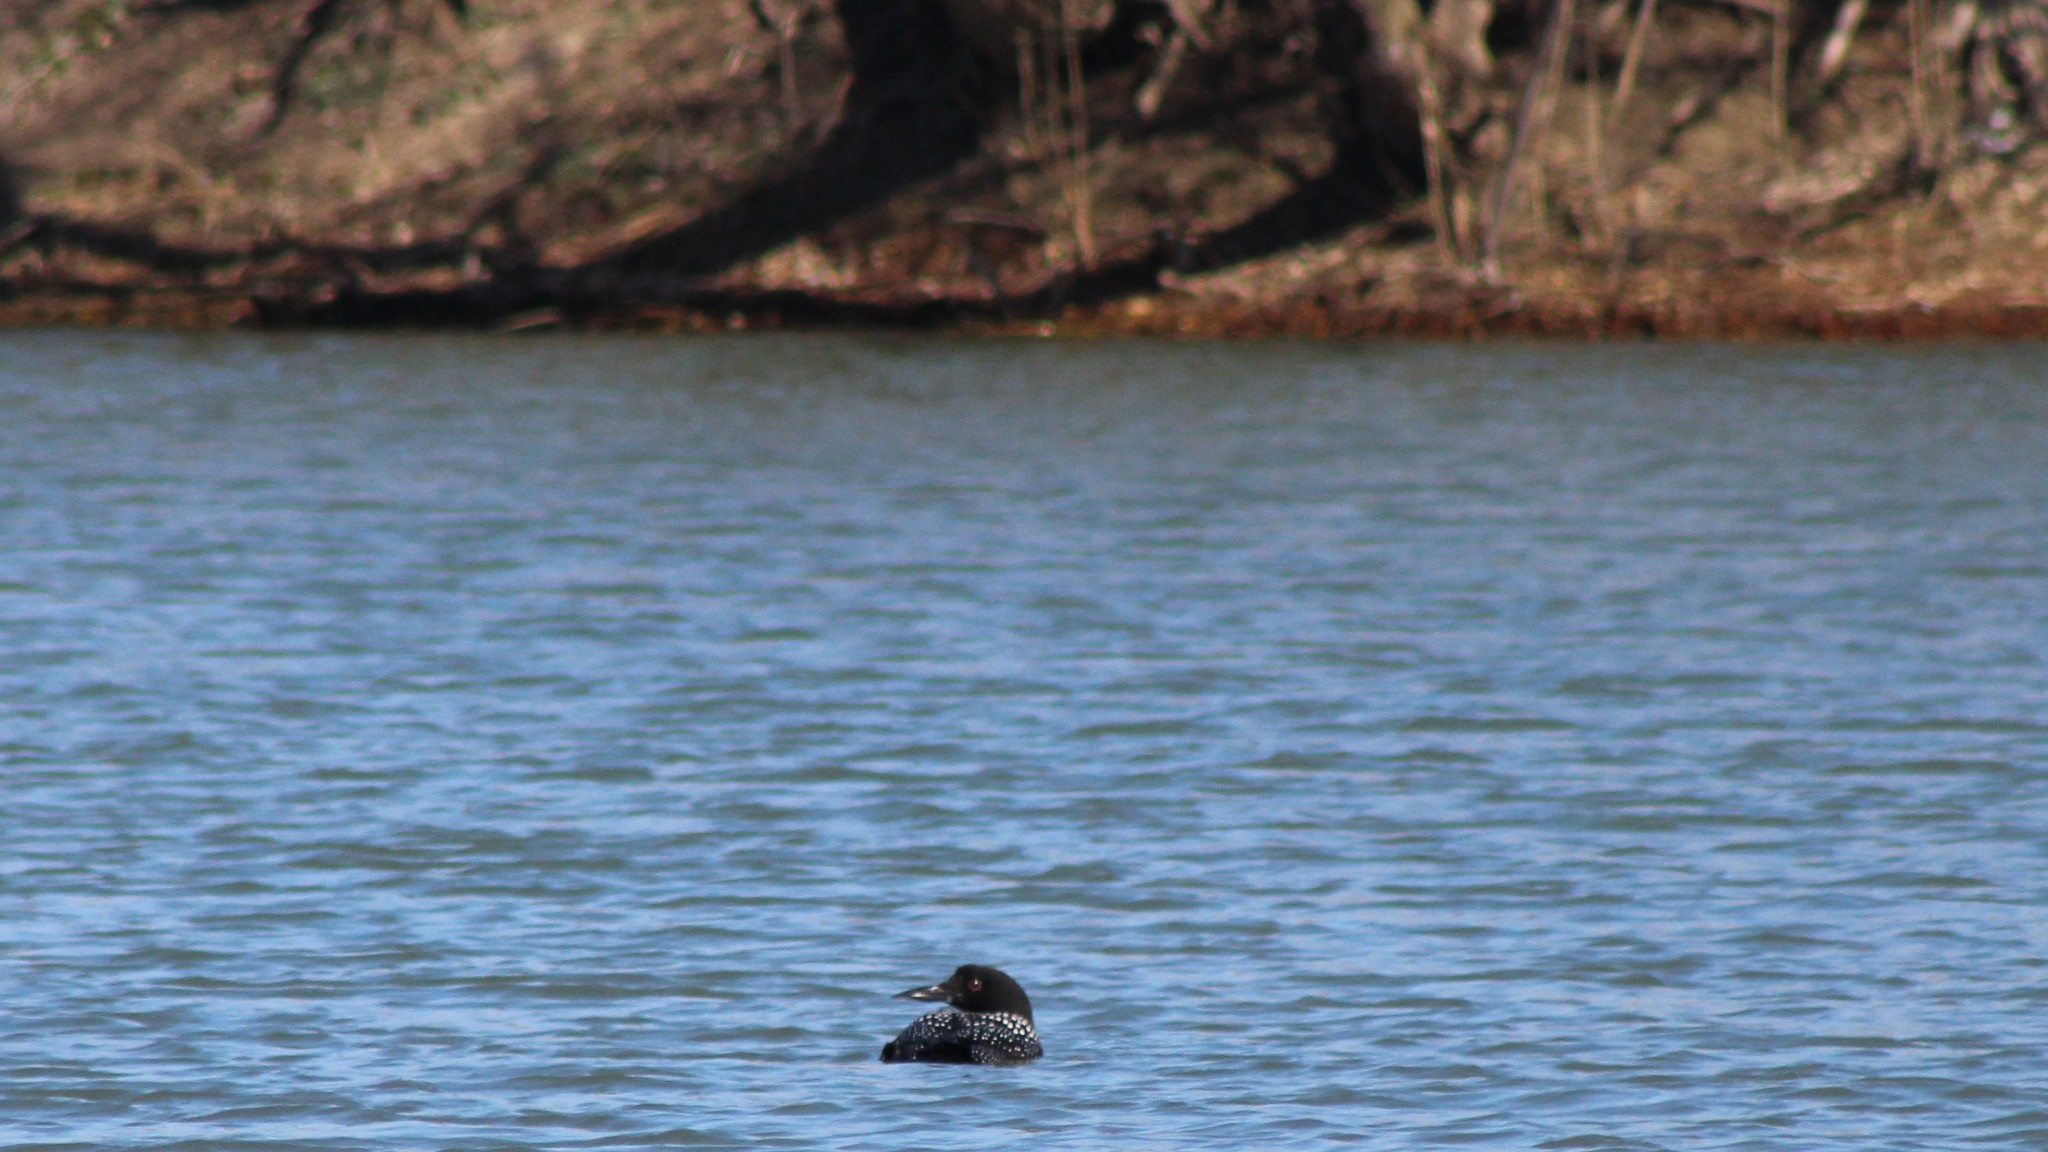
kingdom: Animalia
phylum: Chordata
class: Aves
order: Gaviiformes
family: Gaviidae
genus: Gavia
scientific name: Gavia immer
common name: Common loon
